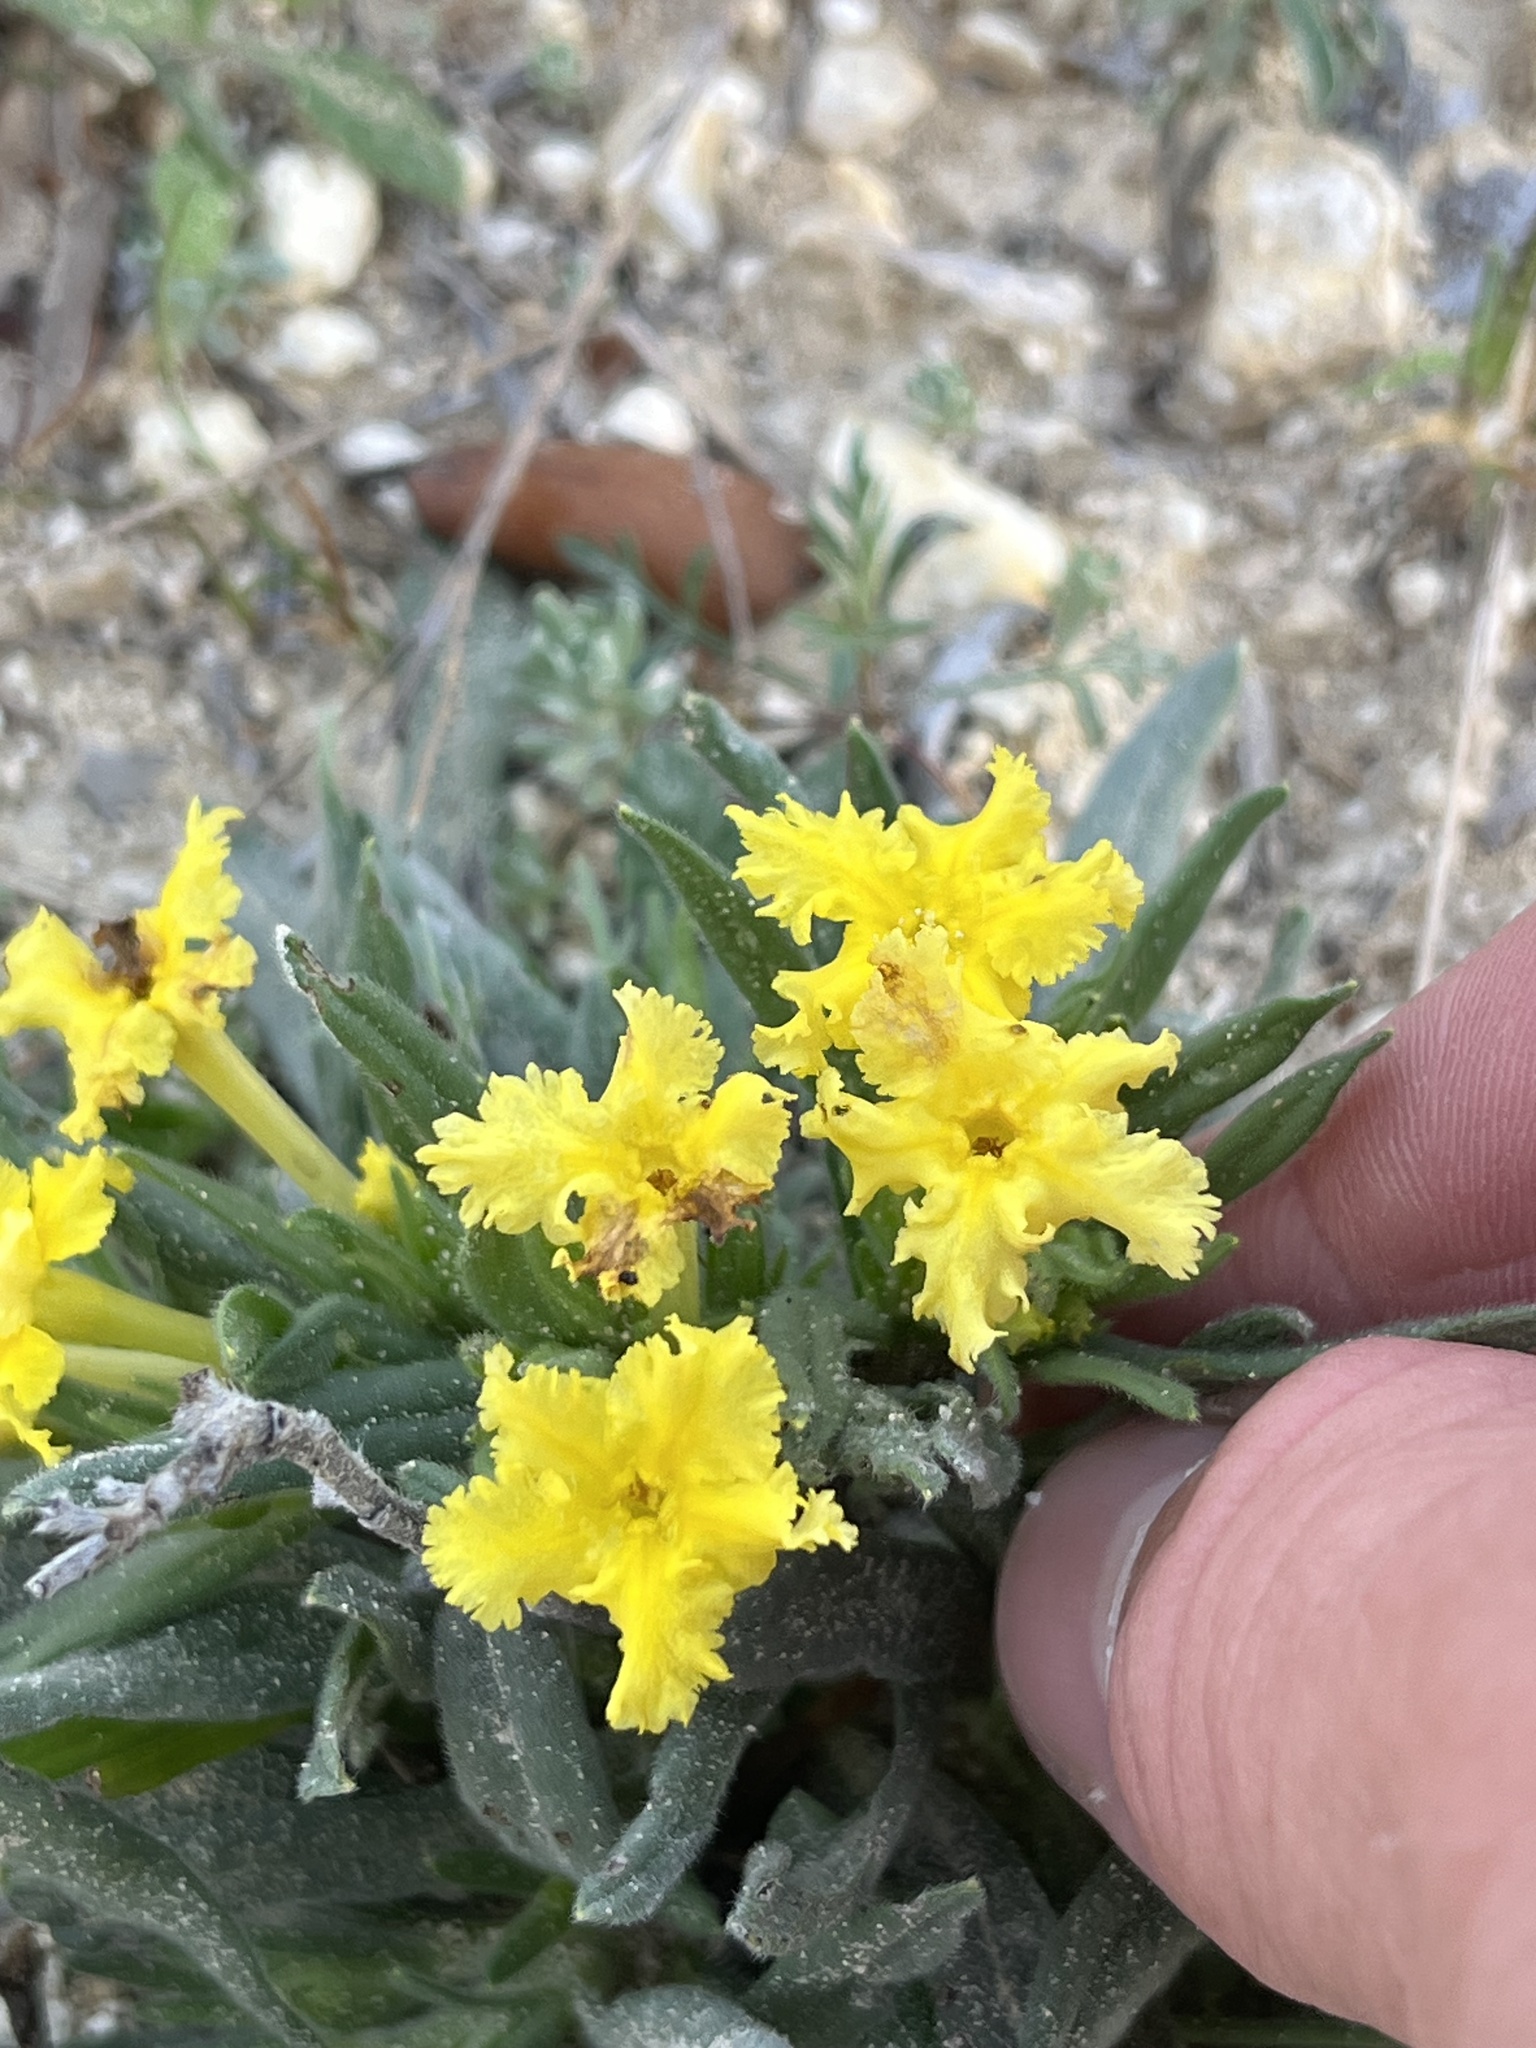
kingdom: Plantae
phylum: Tracheophyta
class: Magnoliopsida
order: Boraginales
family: Boraginaceae
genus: Lithospermum
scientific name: Lithospermum incisum
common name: Fringed gromwell
